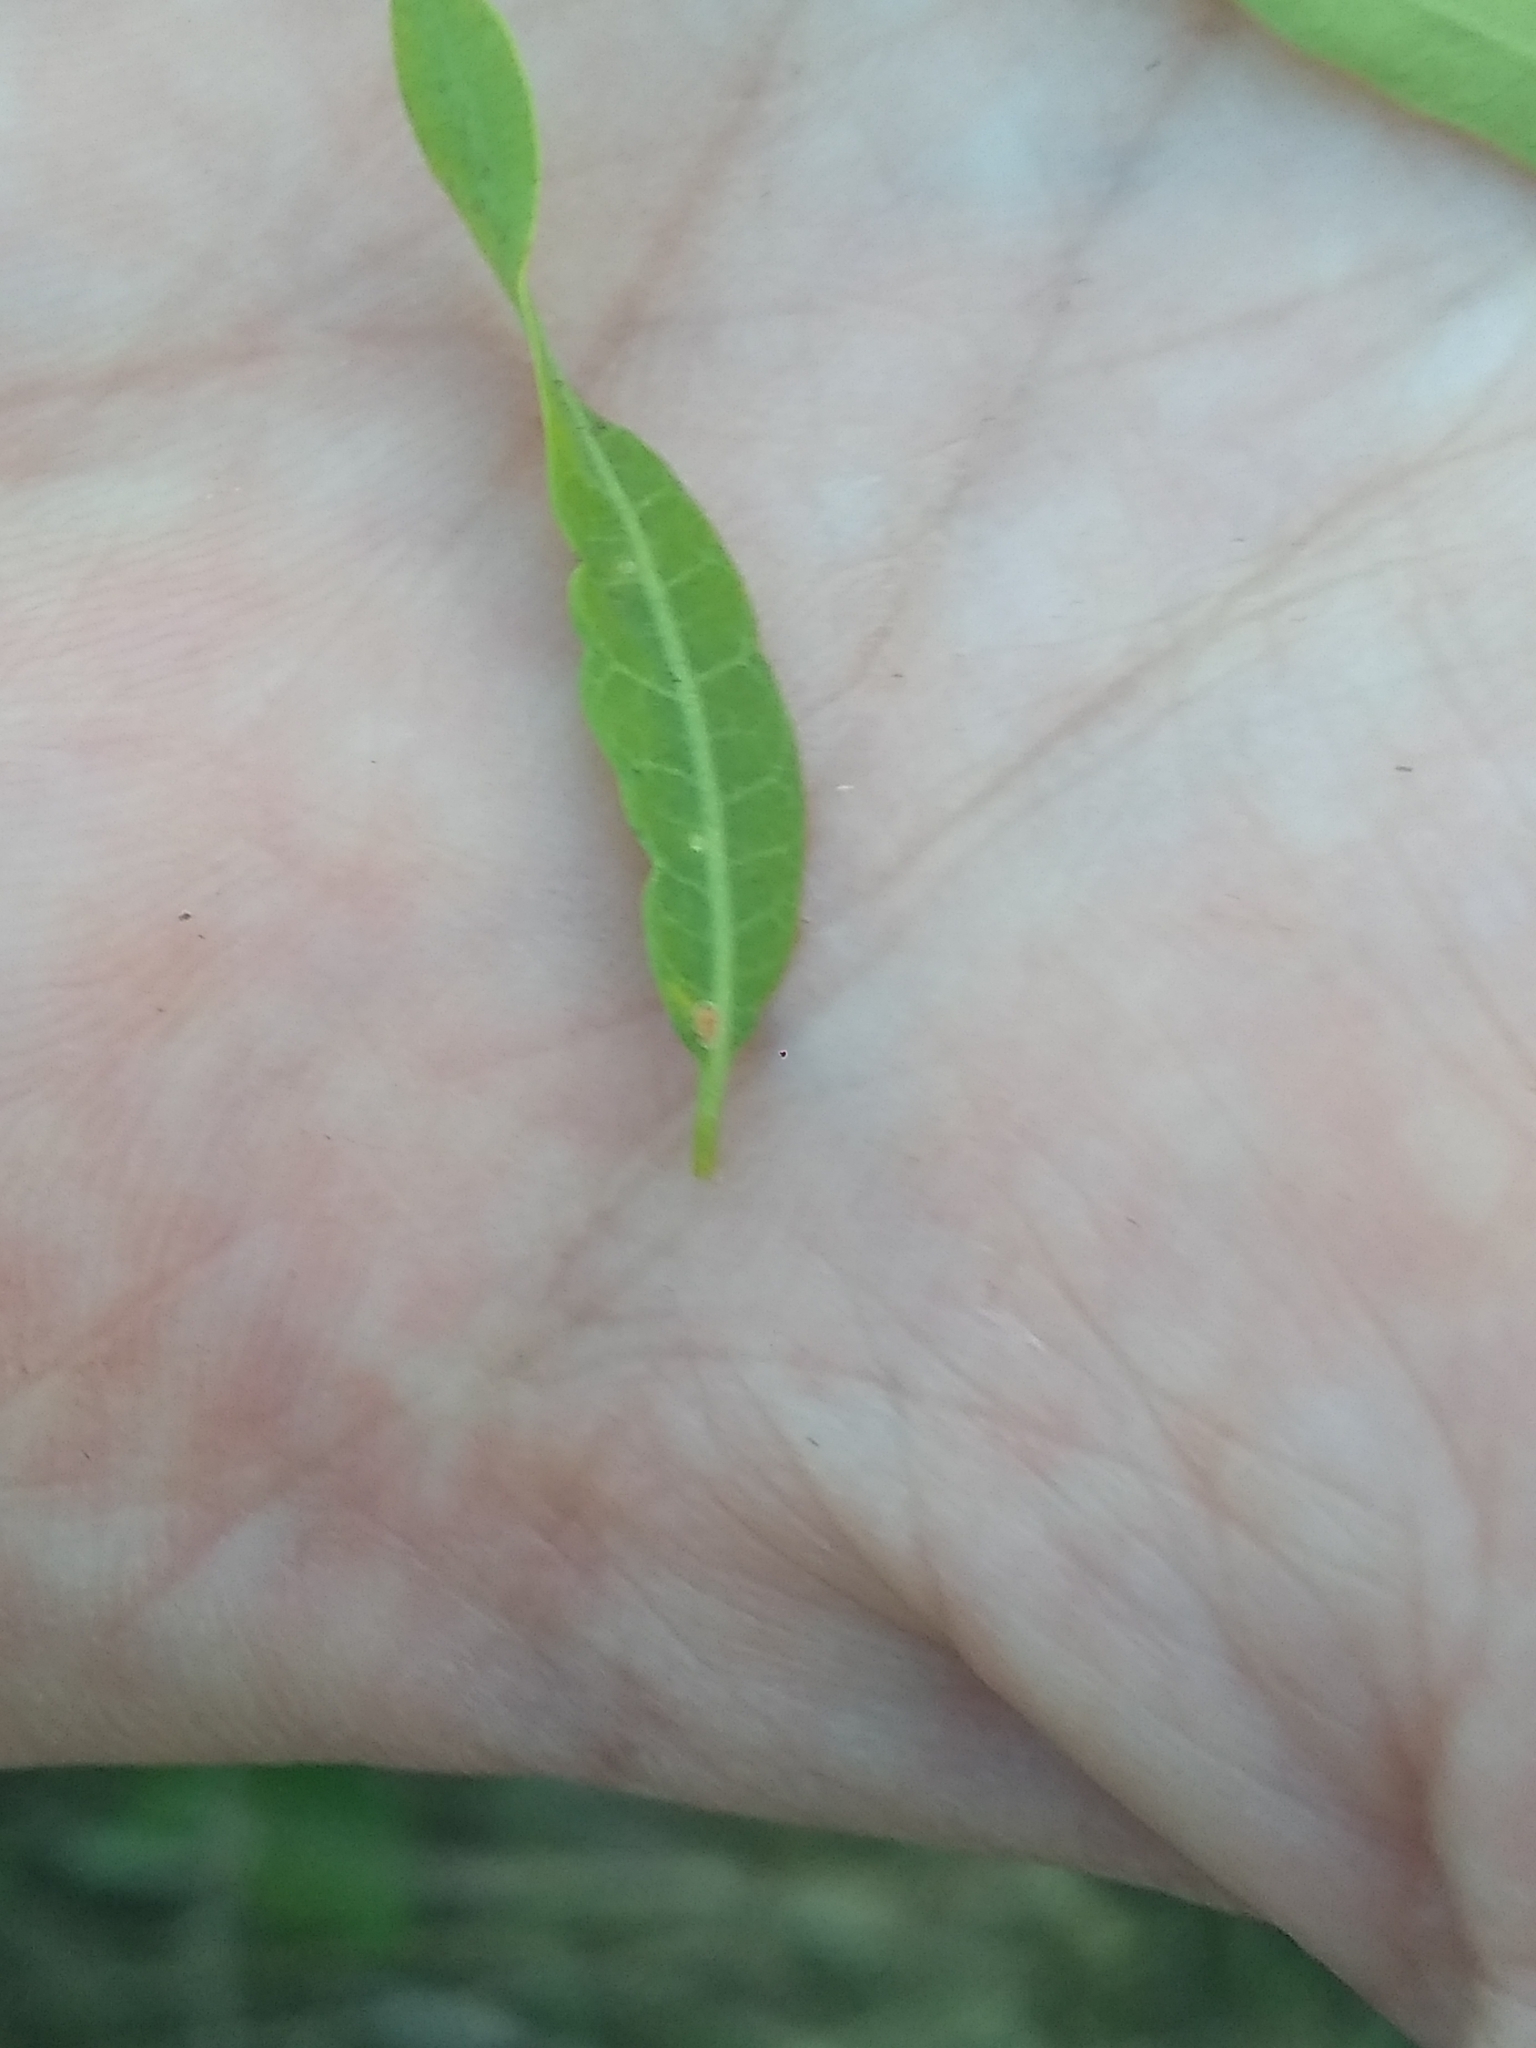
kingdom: Plantae
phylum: Tracheophyta
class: Magnoliopsida
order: Sapindales
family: Anacardiaceae
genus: Schinus
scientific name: Schinus longifolia
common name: Longleaf peppertree
